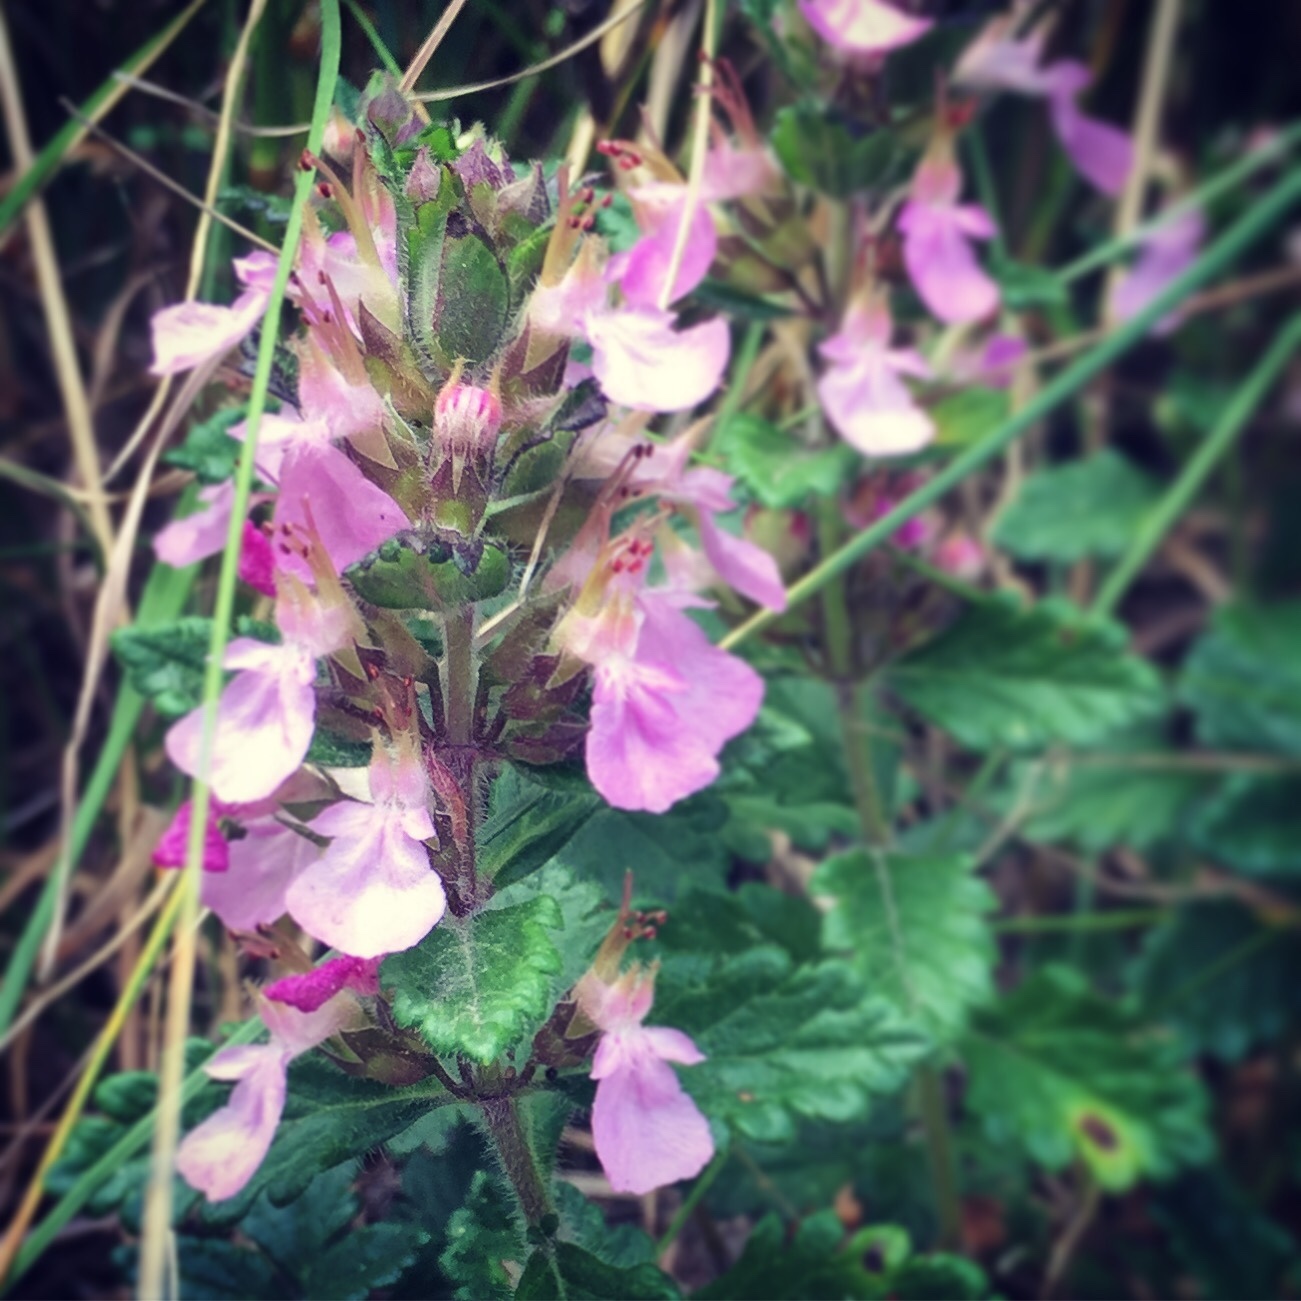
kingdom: Plantae
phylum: Tracheophyta
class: Magnoliopsida
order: Lamiales
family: Lamiaceae
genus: Teucrium
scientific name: Teucrium chamaedrys
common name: Wall germander
